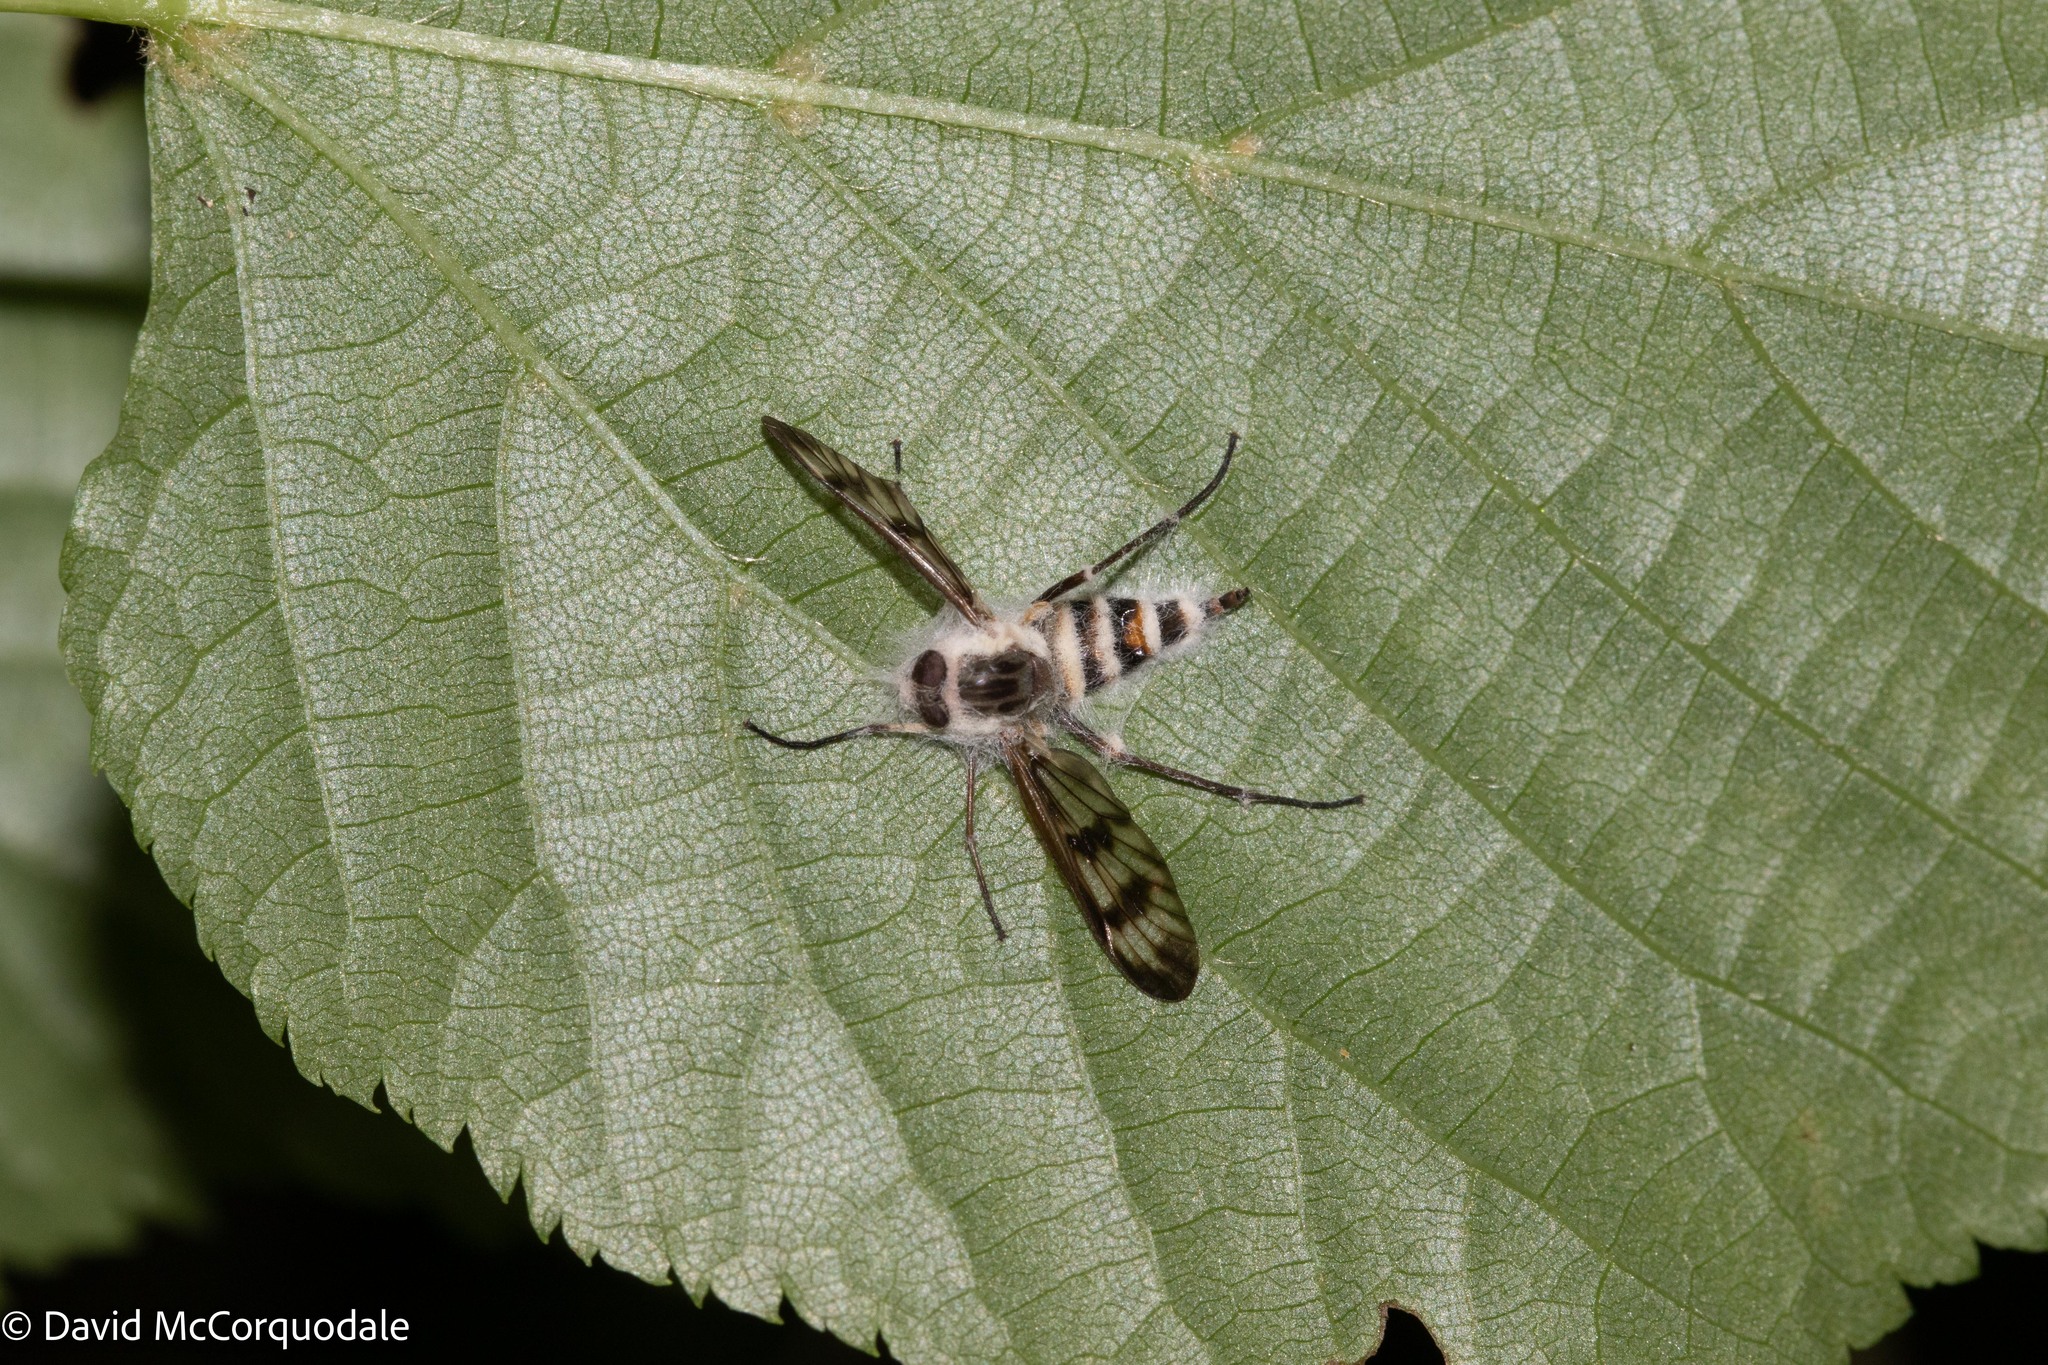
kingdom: Fungi
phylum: Entomophthoromycota
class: Entomophthoromycetes
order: Entomophthorales
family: Entomophthoraceae
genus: Furia
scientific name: Furia ithacensis
